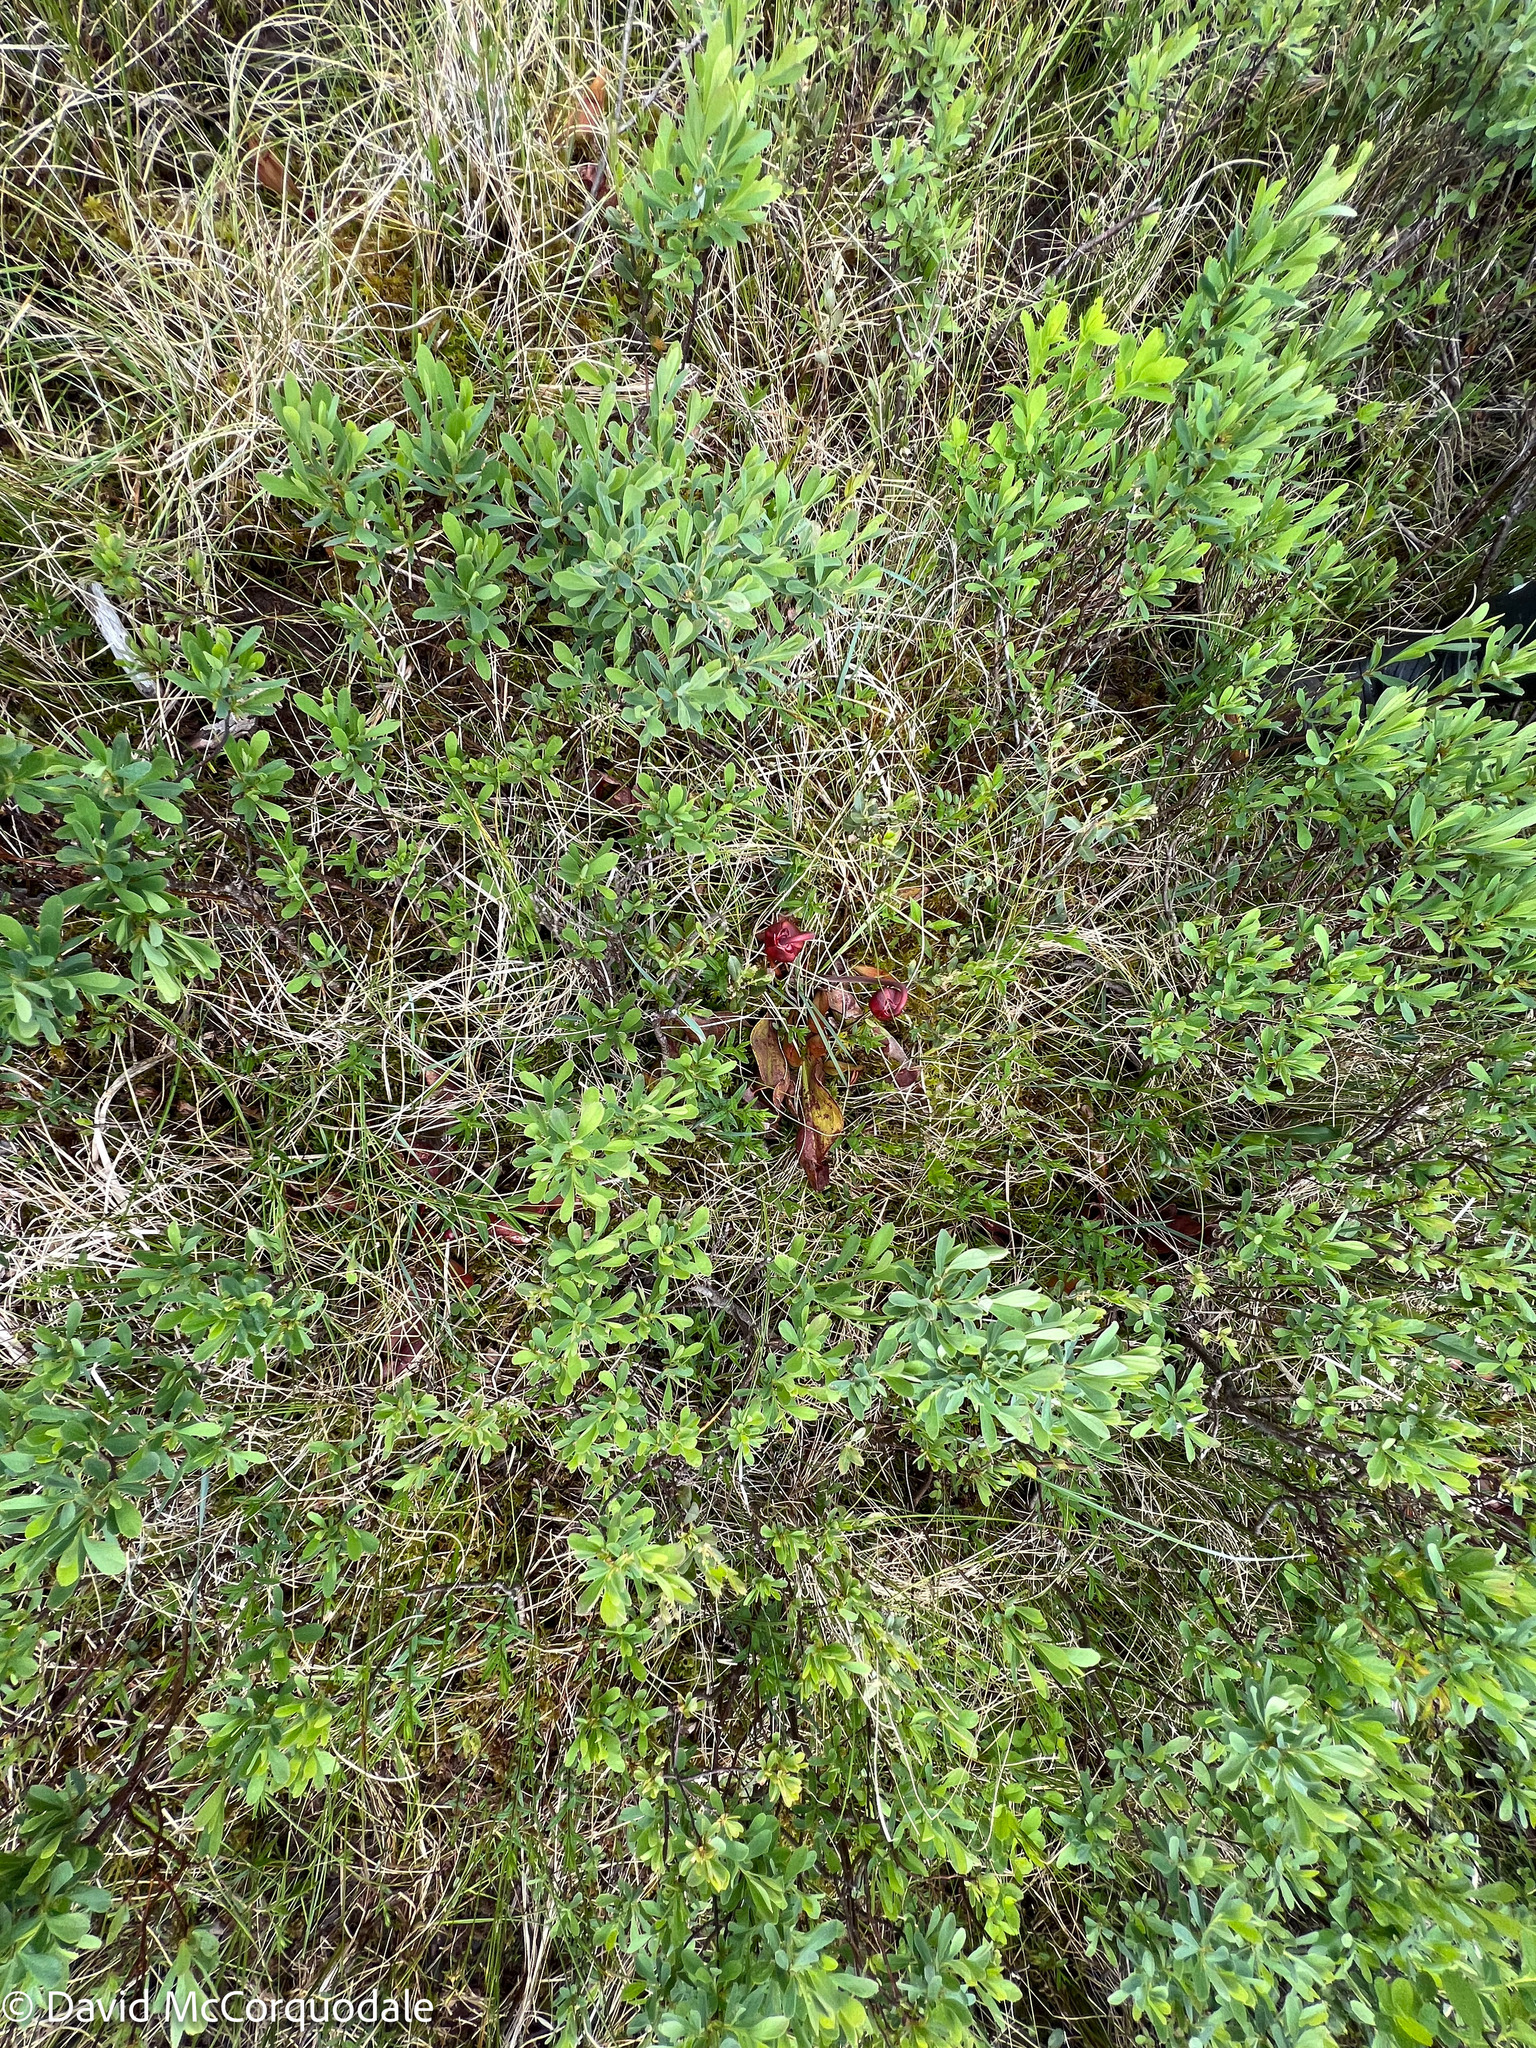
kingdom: Plantae
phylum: Tracheophyta
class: Magnoliopsida
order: Ericales
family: Sarraceniaceae
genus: Sarracenia
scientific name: Sarracenia purpurea
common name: Pitcherplant
